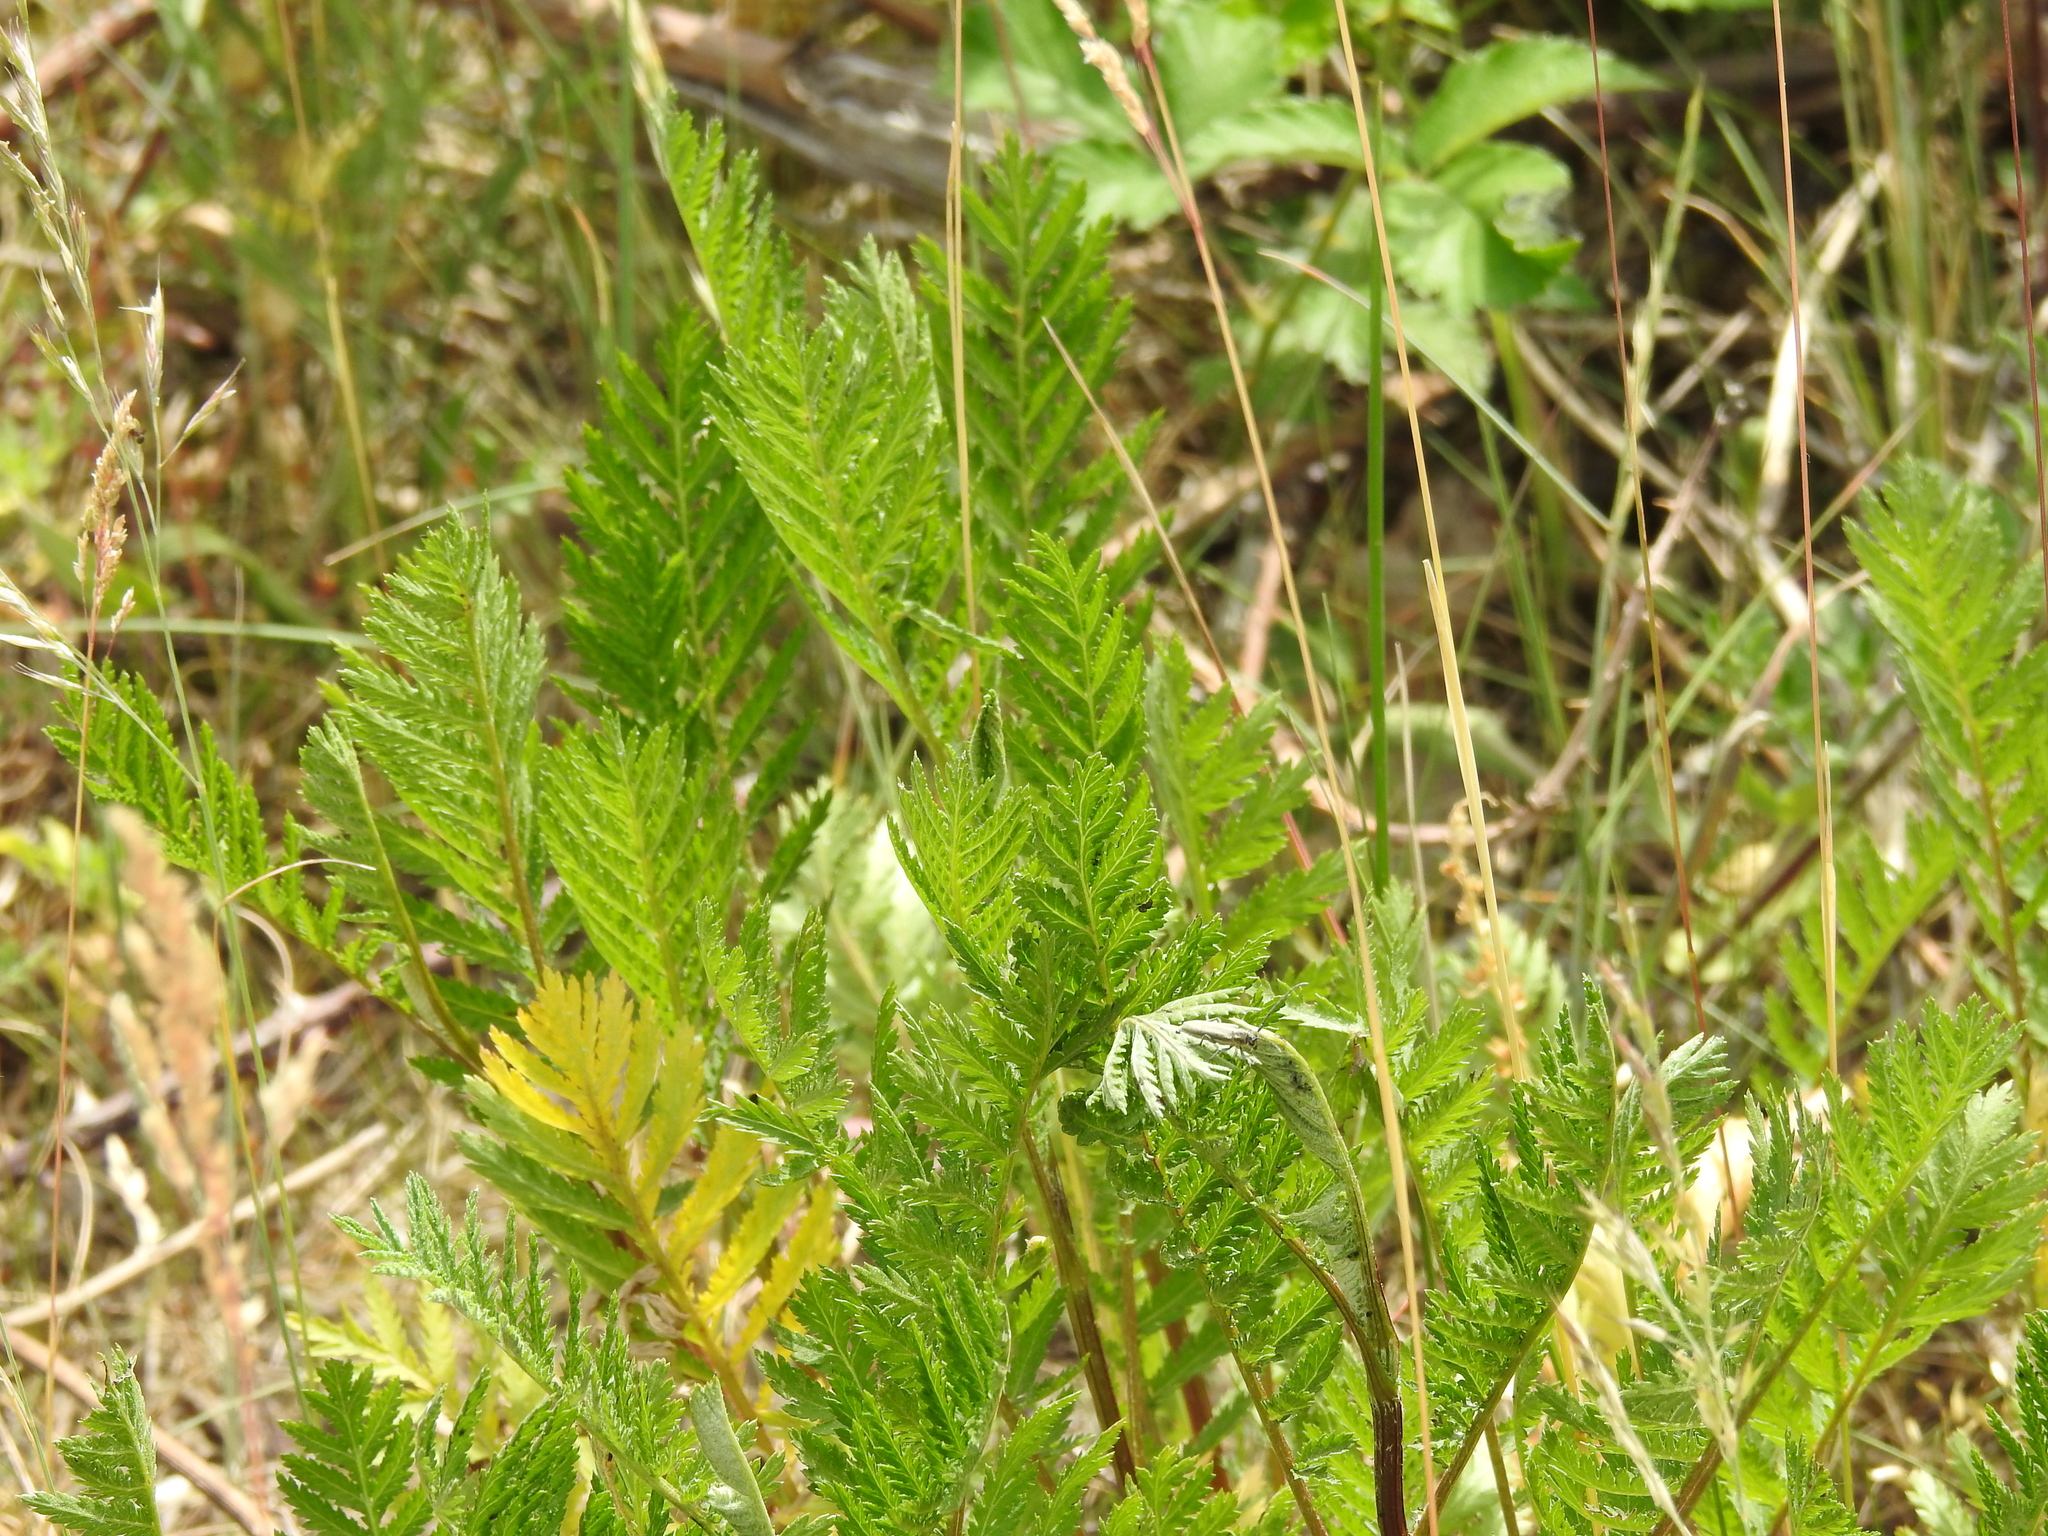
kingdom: Plantae
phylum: Tracheophyta
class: Magnoliopsida
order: Asterales
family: Asteraceae
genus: Tanacetum
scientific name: Tanacetum vulgare
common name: Common tansy
